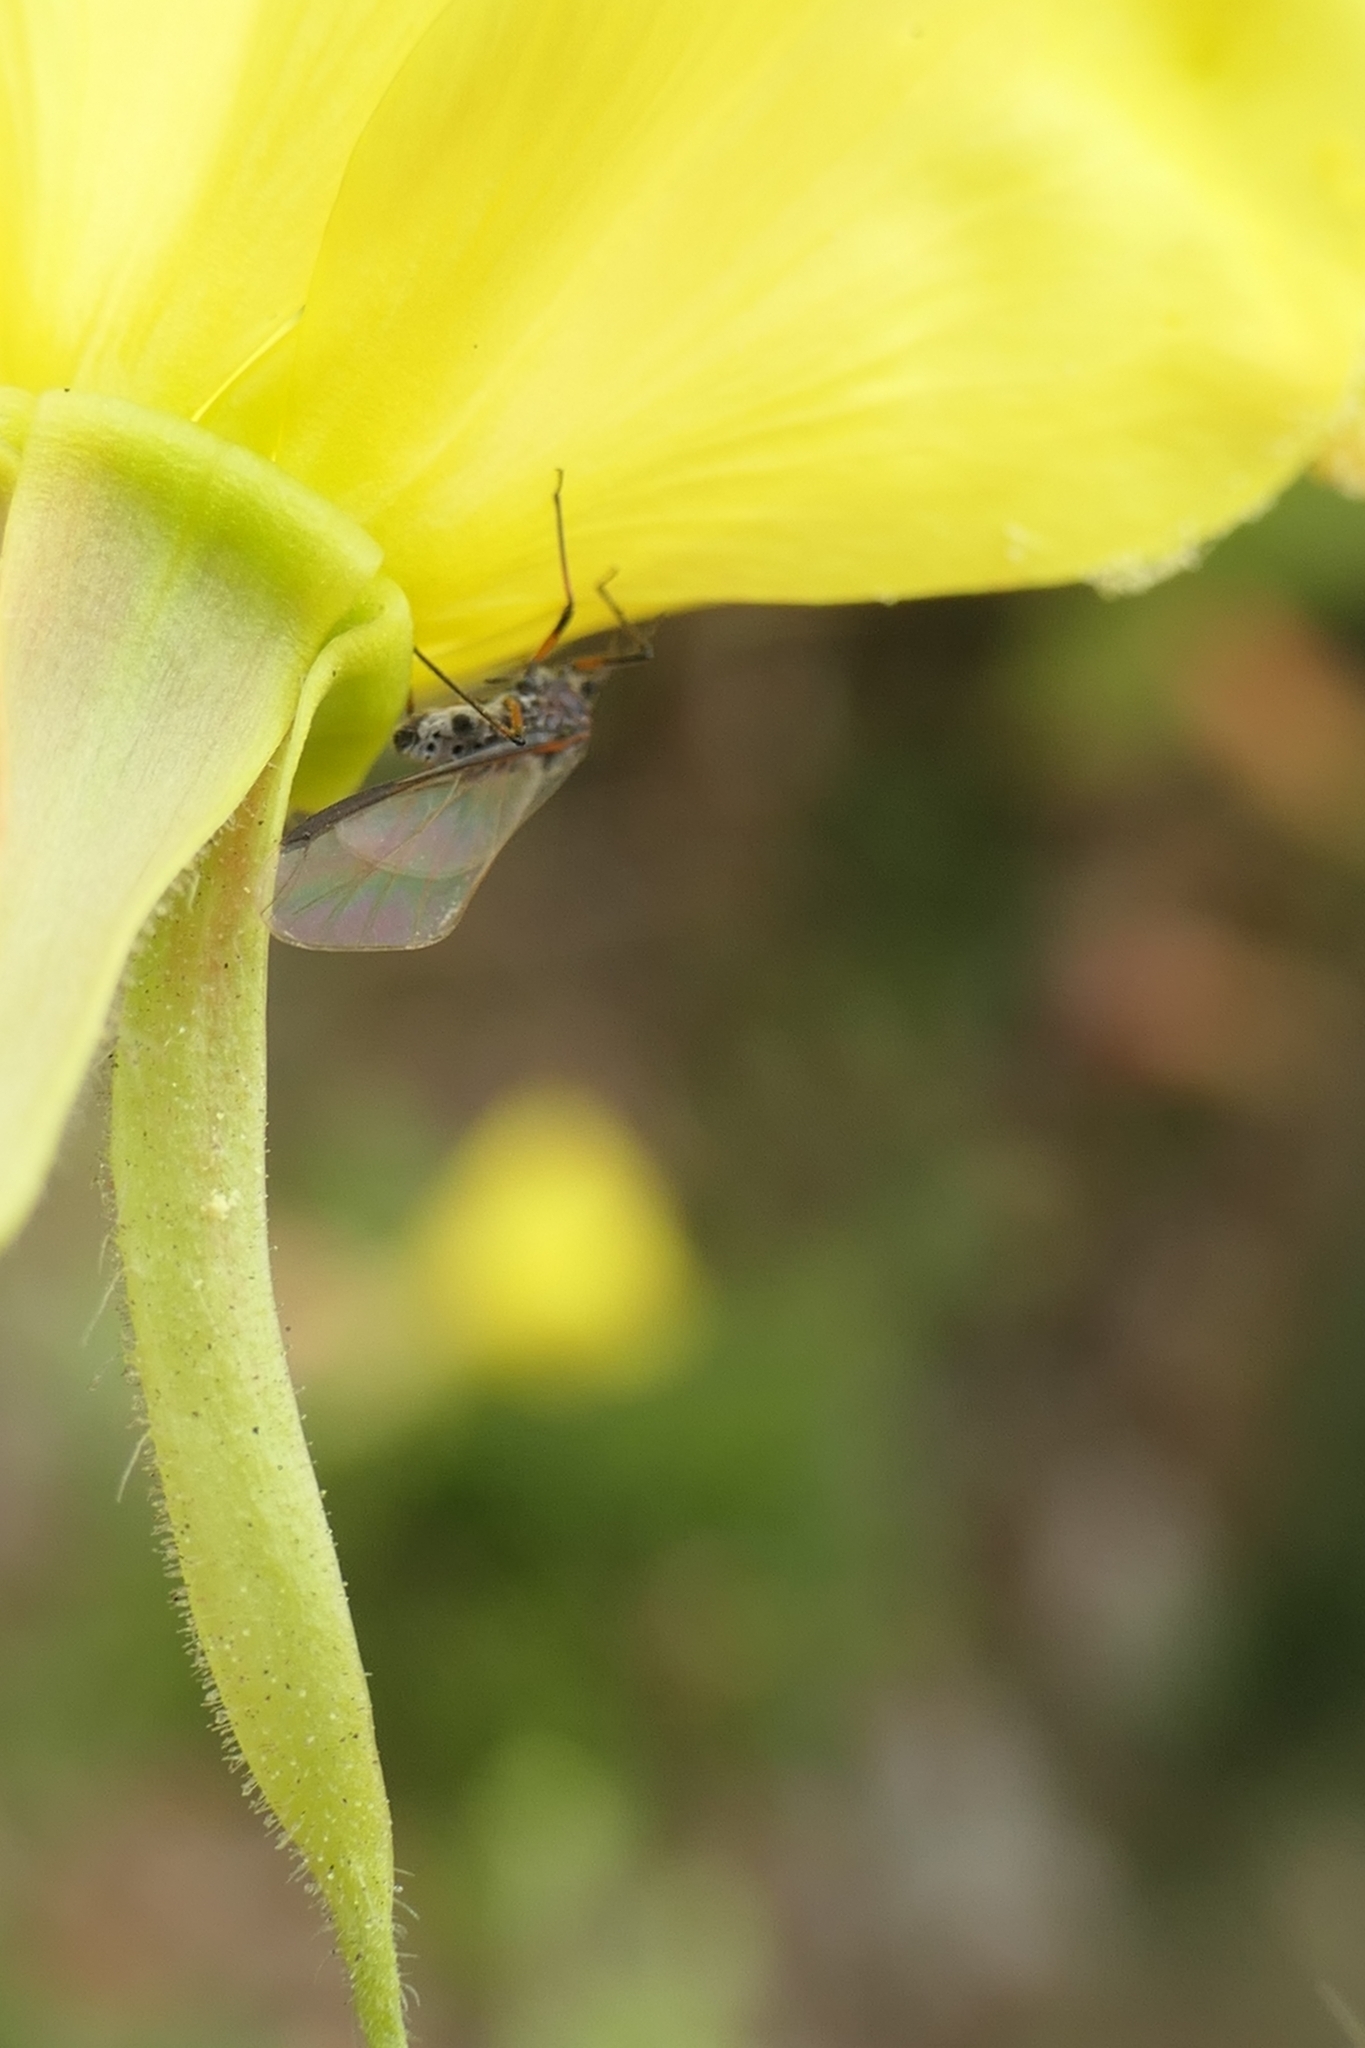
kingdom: Animalia
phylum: Arthropoda
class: Insecta
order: Hemiptera
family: Aphididae
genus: Tuberolachnus
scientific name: Tuberolachnus salignus
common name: Giant willow aphid
